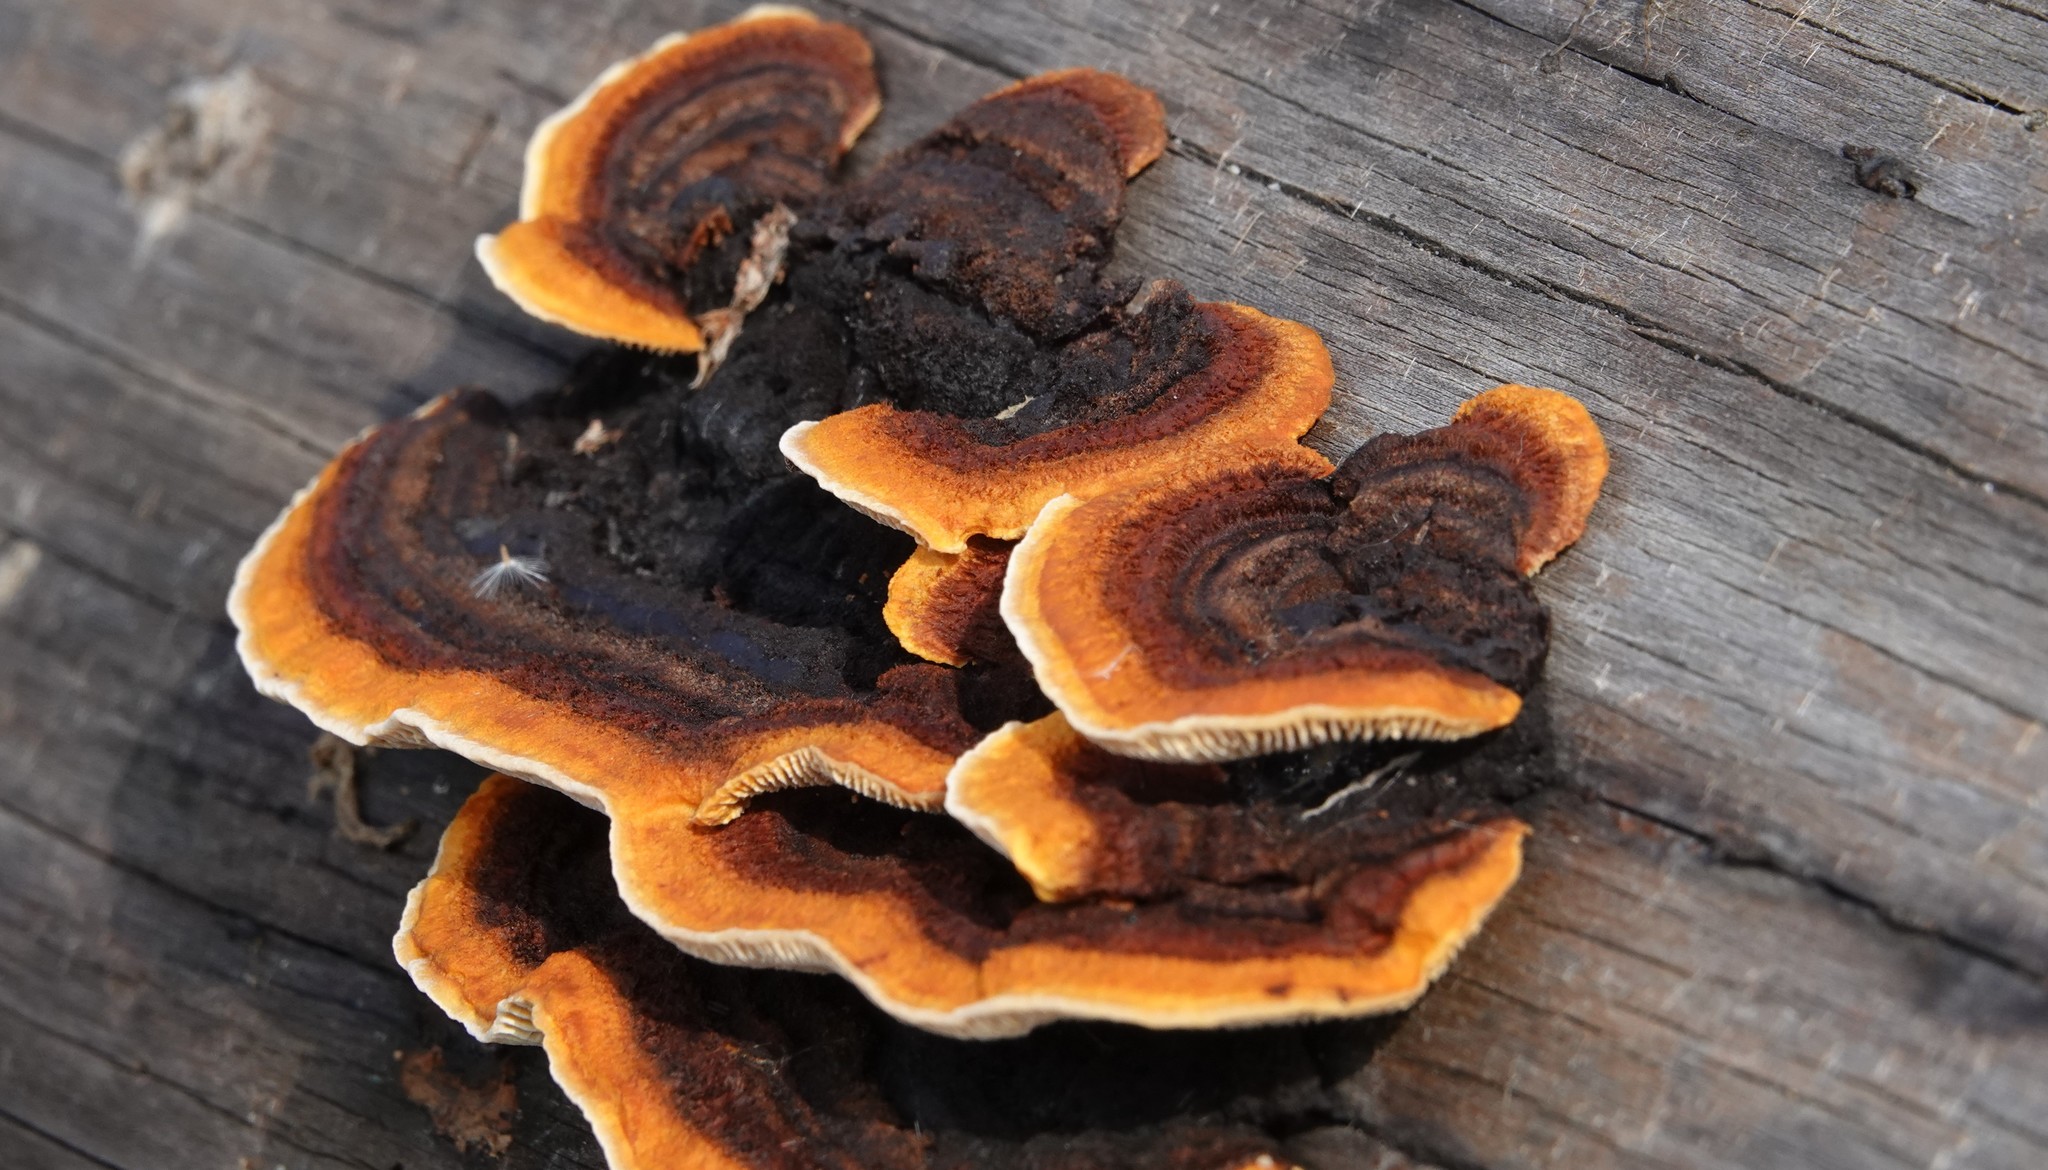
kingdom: Fungi
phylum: Basidiomycota
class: Agaricomycetes
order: Gloeophyllales
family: Gloeophyllaceae
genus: Gloeophyllum
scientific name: Gloeophyllum sepiarium
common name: Conifer mazegill
